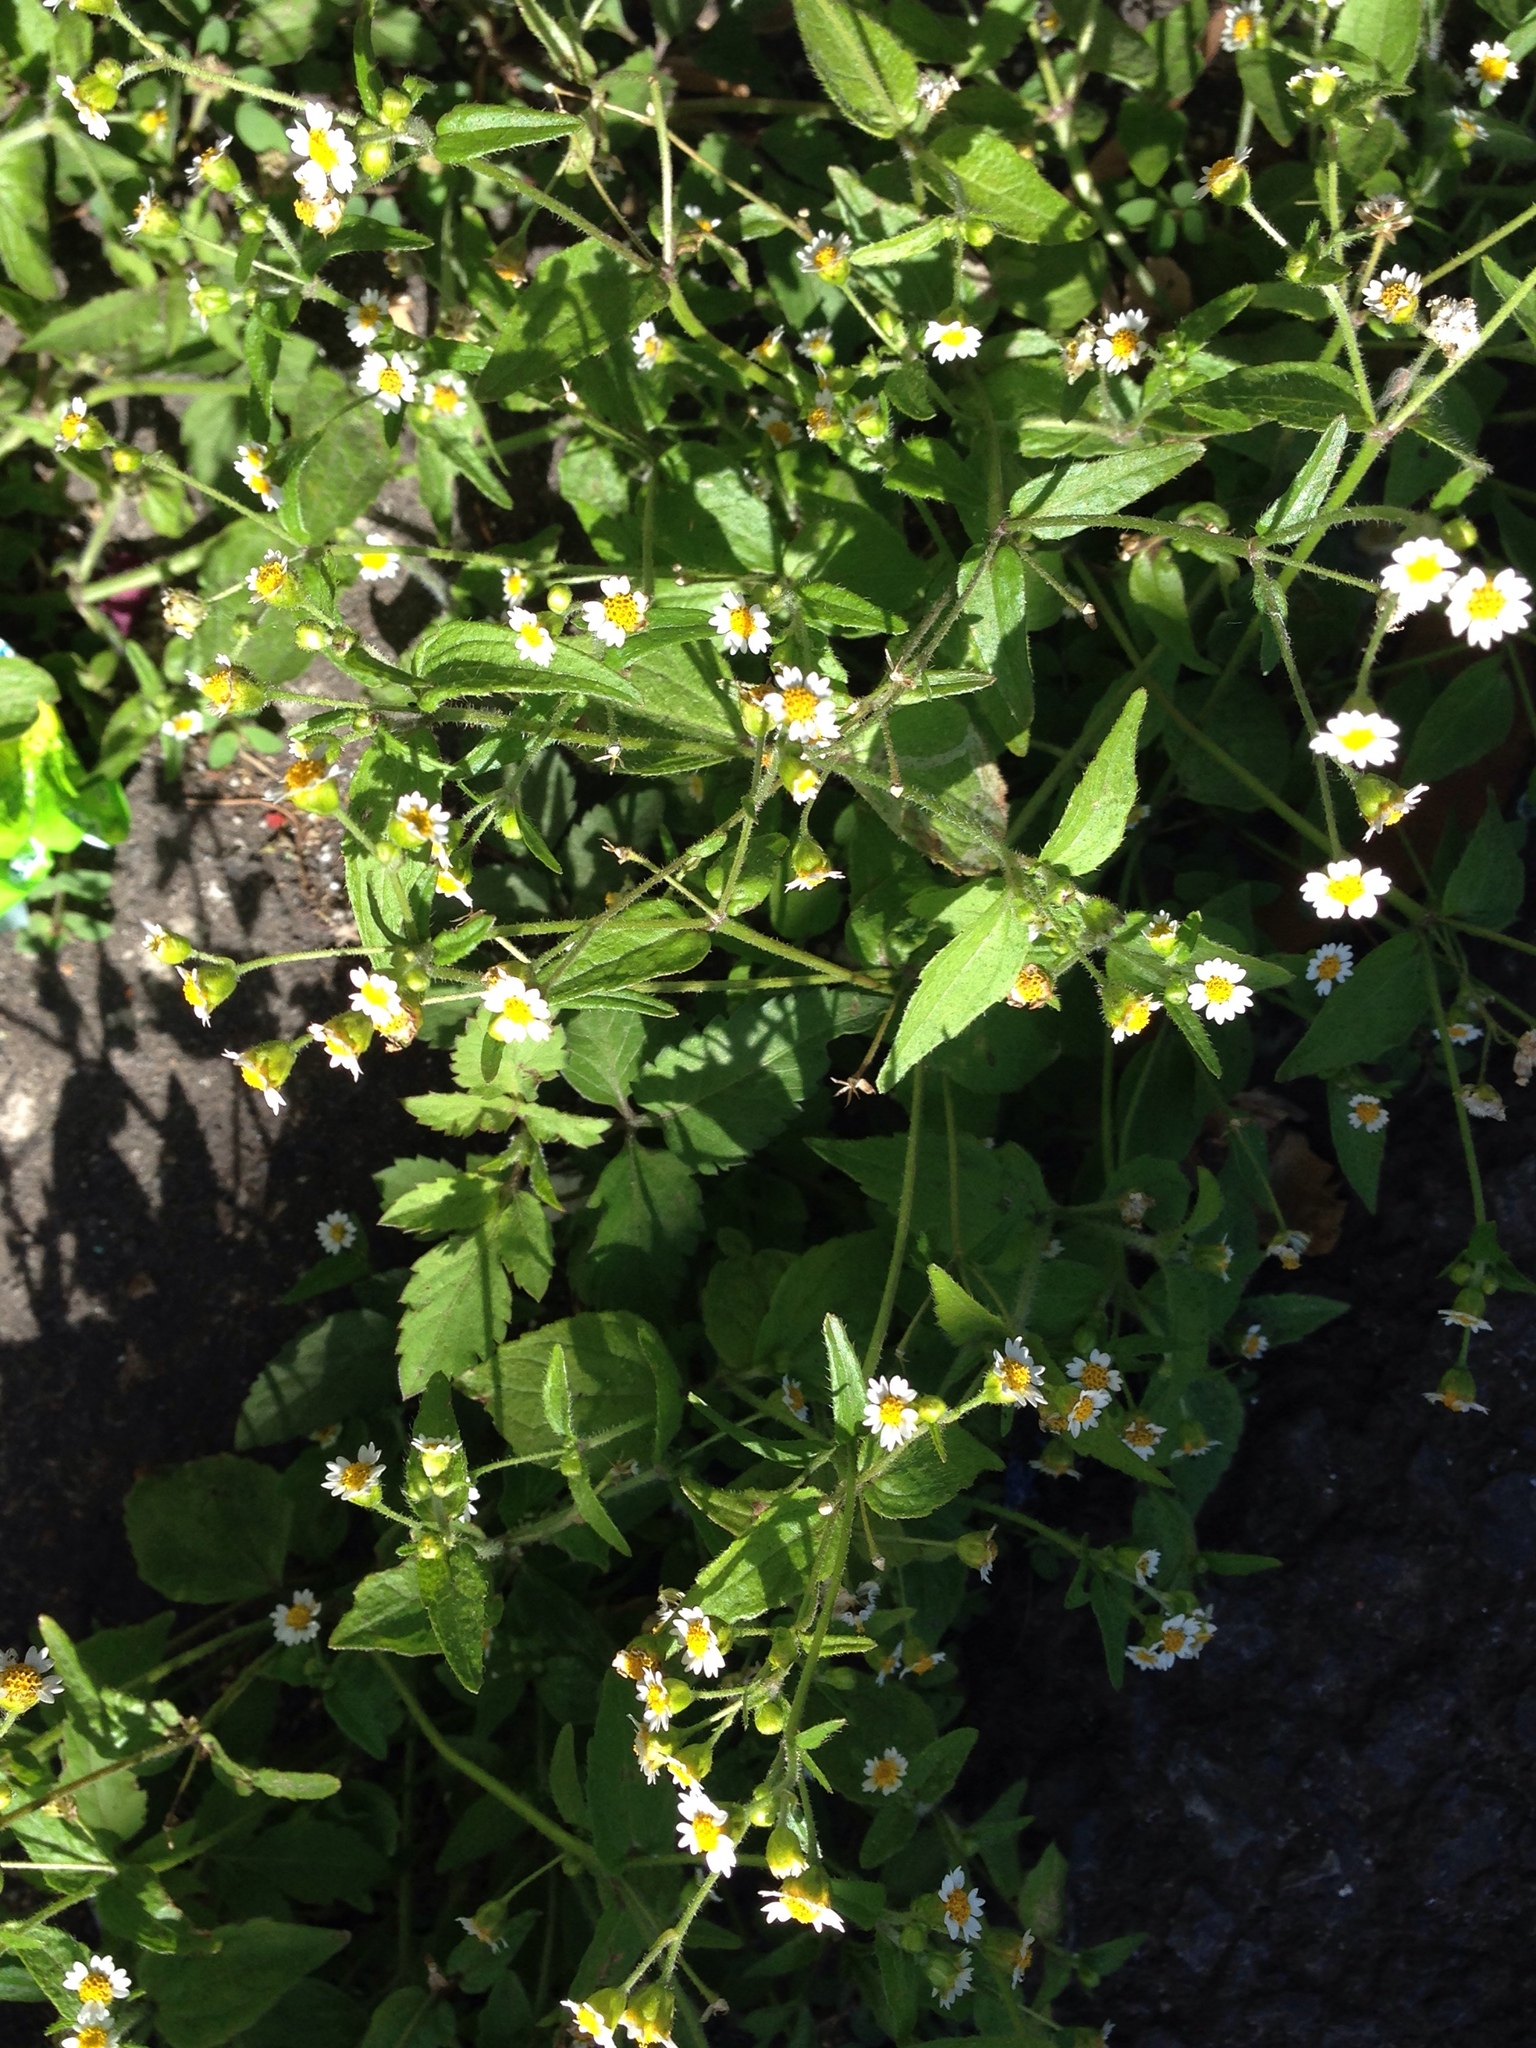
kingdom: Plantae
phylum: Tracheophyta
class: Magnoliopsida
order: Asterales
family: Asteraceae
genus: Galinsoga
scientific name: Galinsoga quadriradiata
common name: Shaggy soldier
